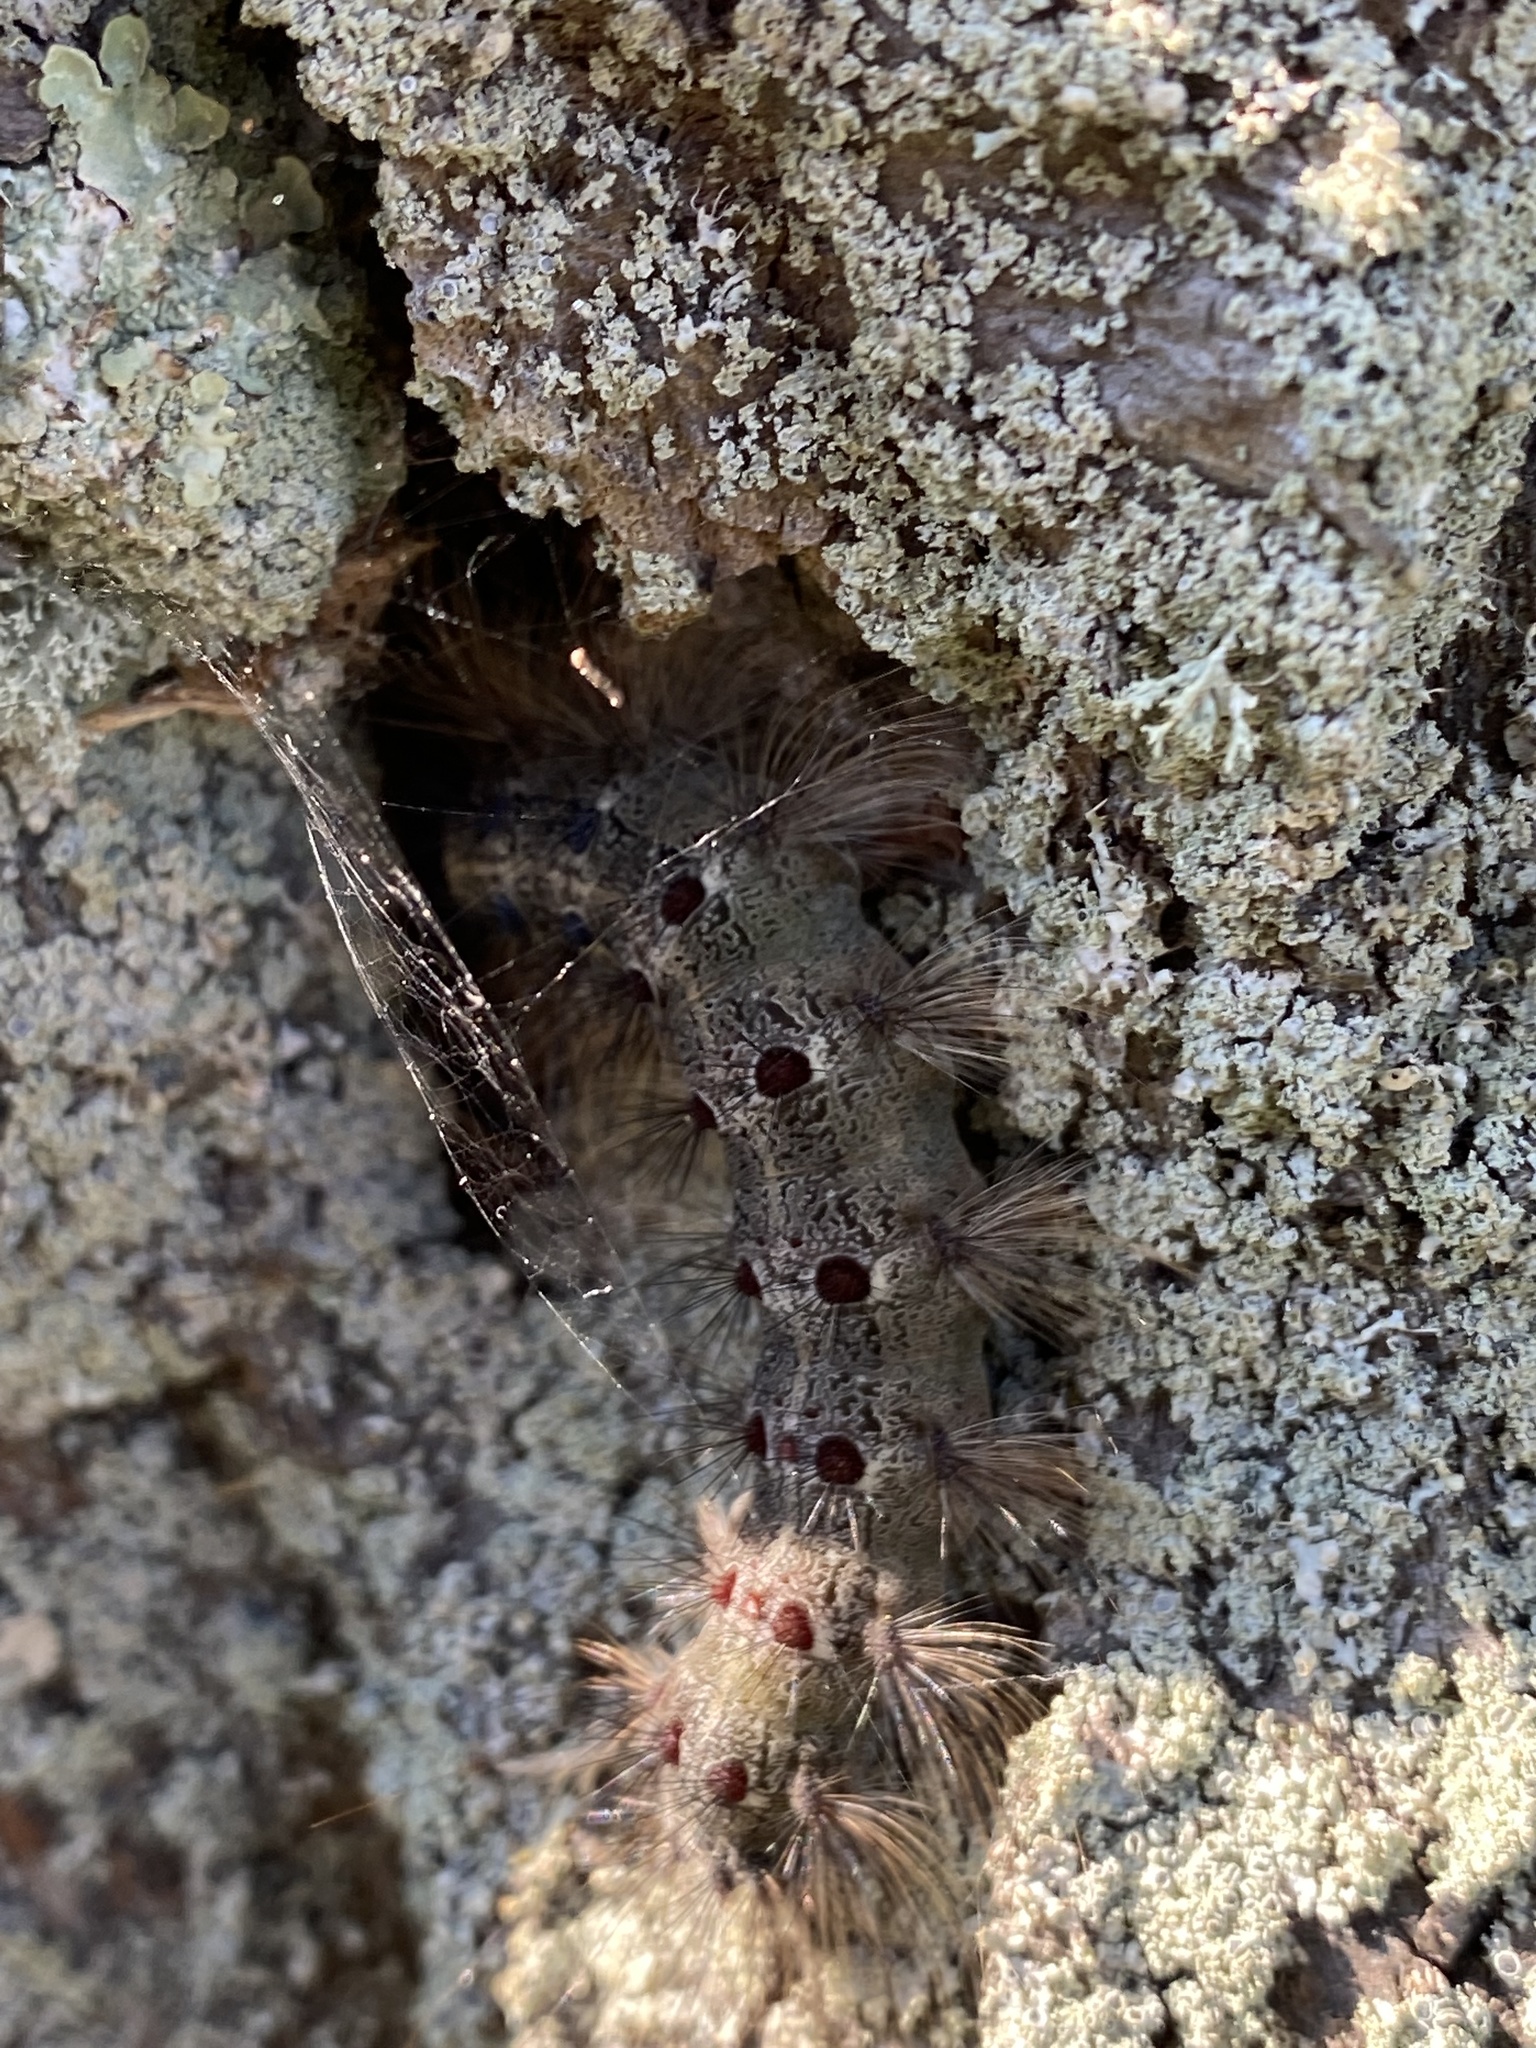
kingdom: Animalia
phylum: Arthropoda
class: Insecta
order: Lepidoptera
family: Erebidae
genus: Lymantria
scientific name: Lymantria dispar
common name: Gypsy moth
